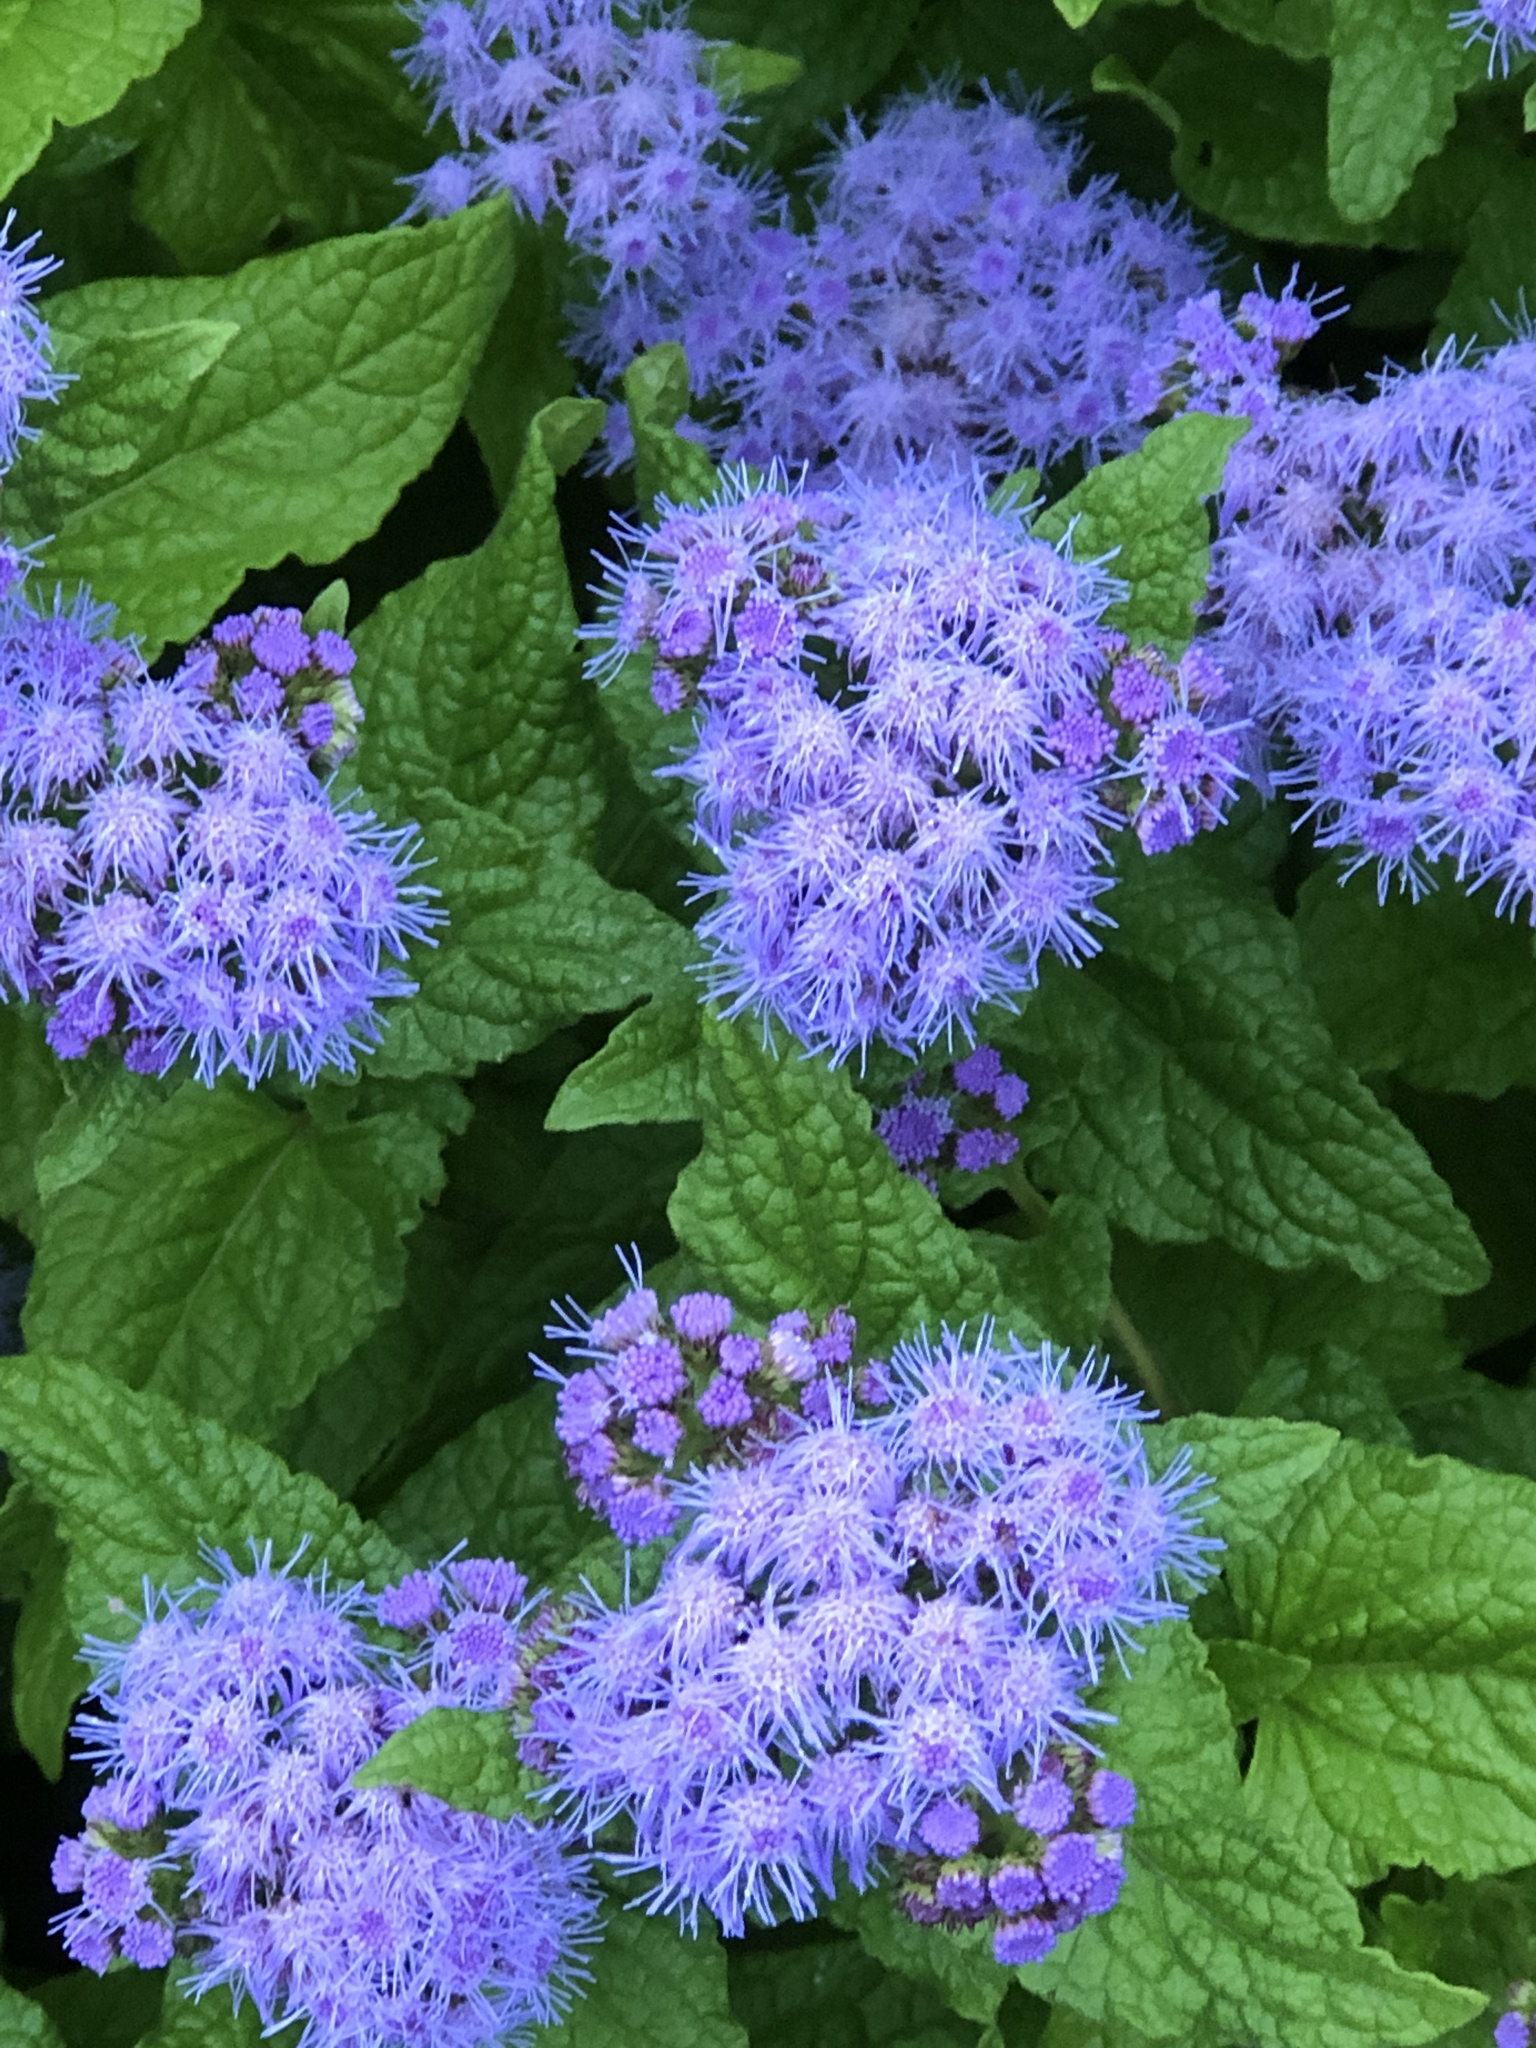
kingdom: Plantae
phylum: Tracheophyta
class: Magnoliopsida
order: Asterales
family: Asteraceae
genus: Conoclinium
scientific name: Conoclinium coelestinum
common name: Blue mistflower
